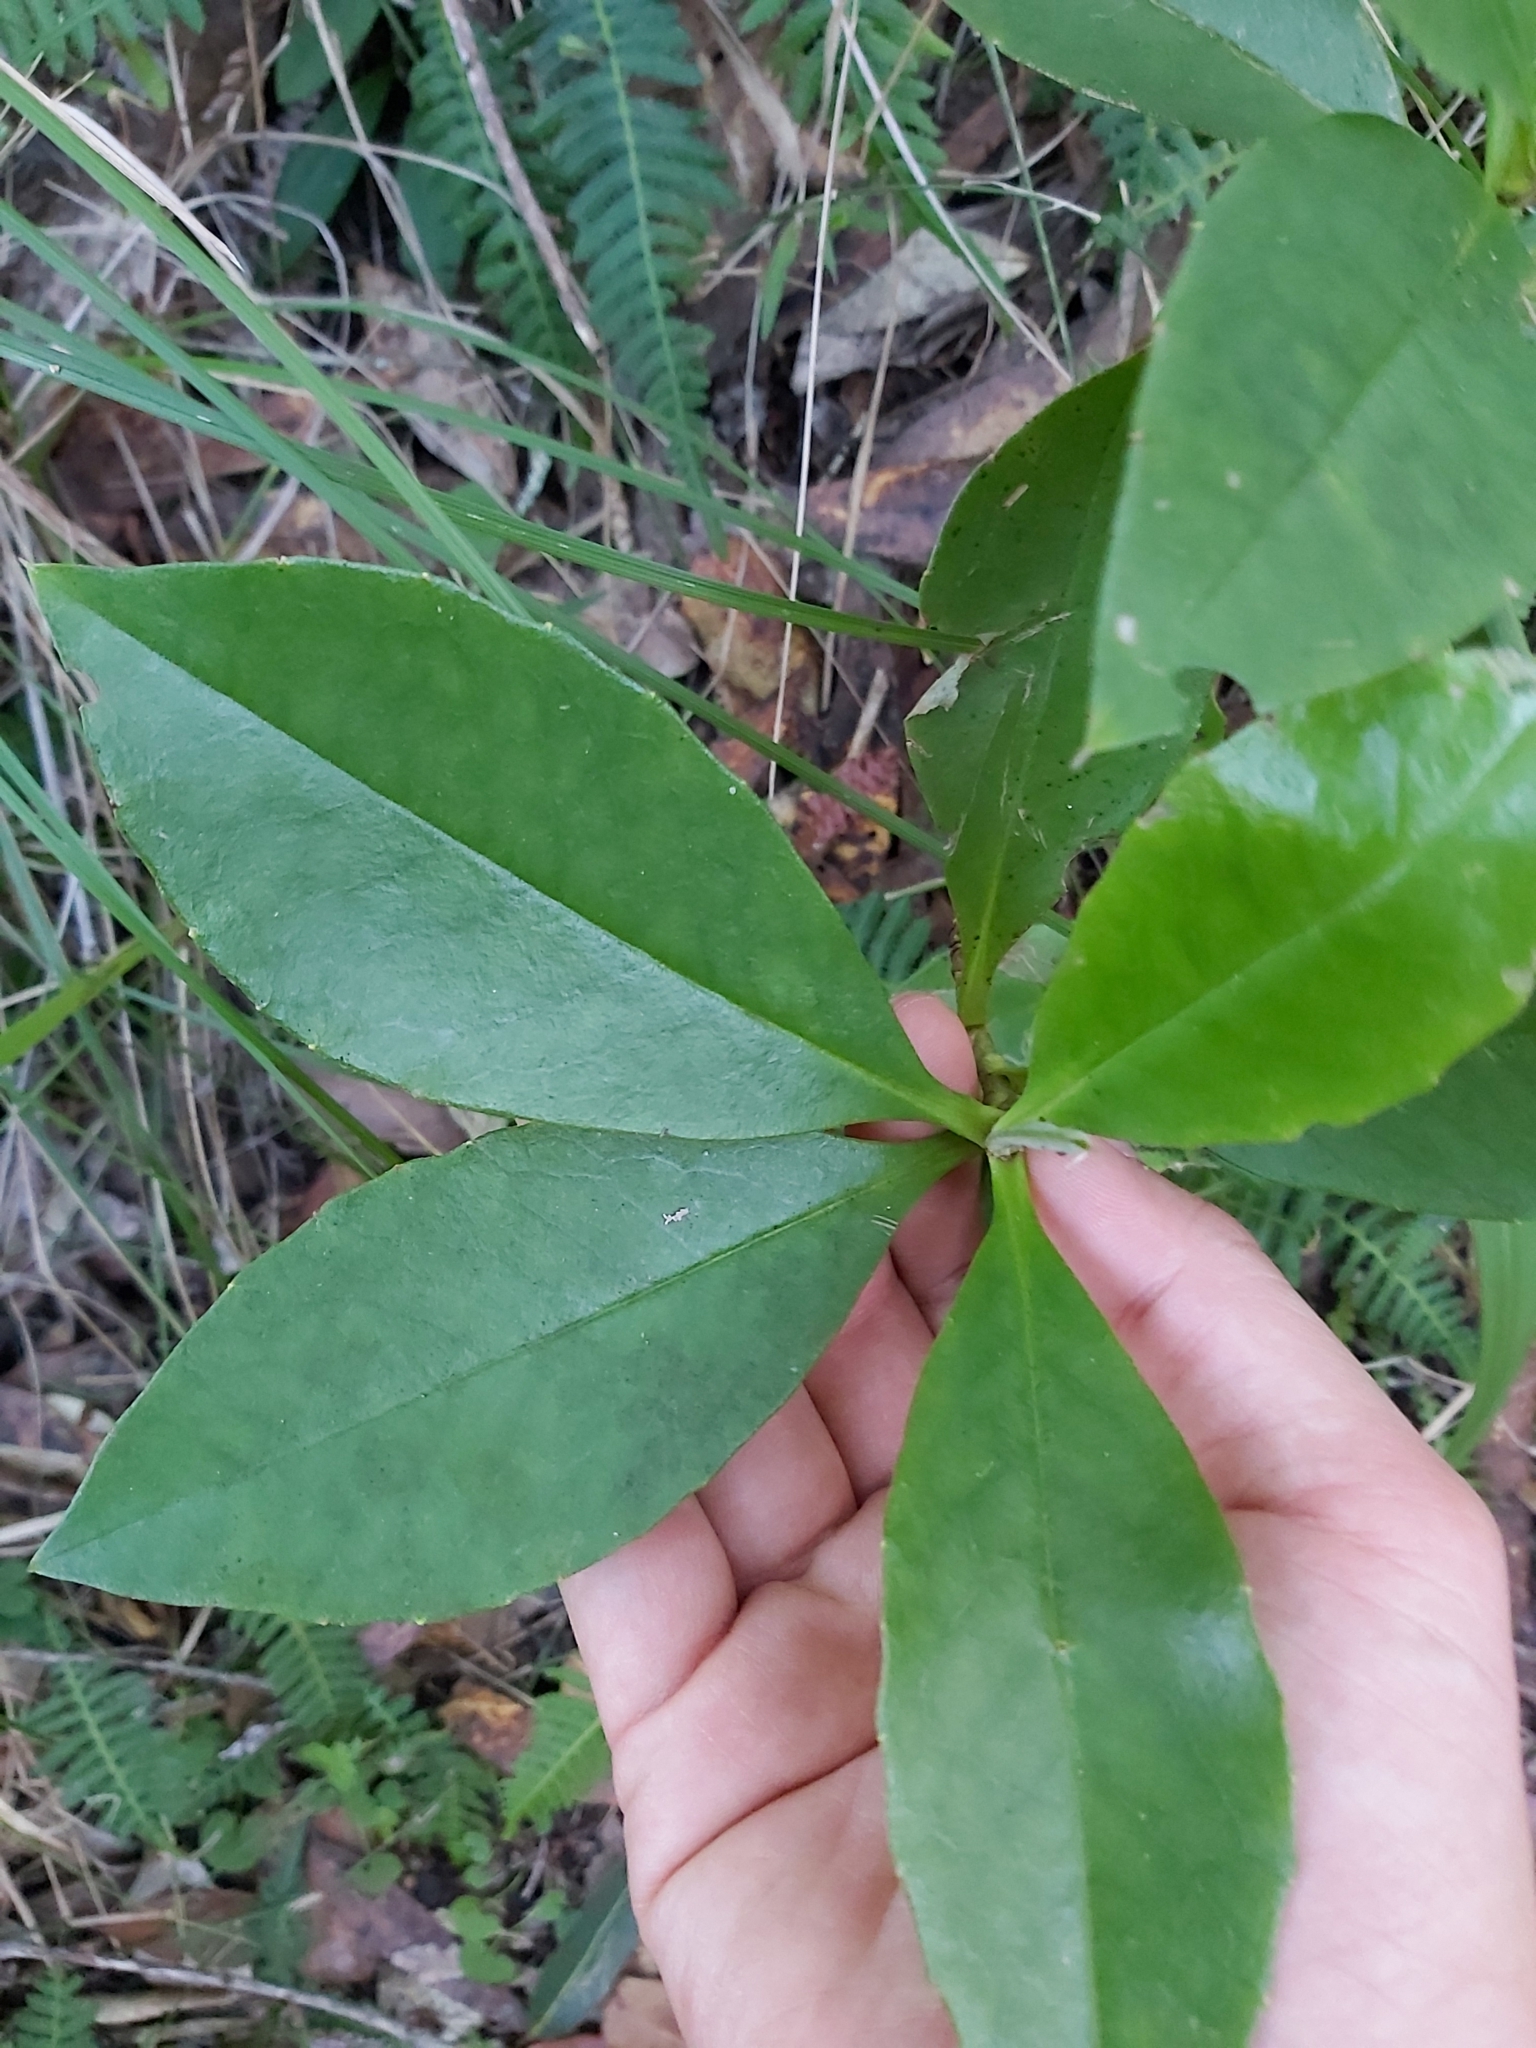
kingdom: Plantae
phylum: Tracheophyta
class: Magnoliopsida
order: Dilleniales
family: Dilleniaceae
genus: Hibbertia
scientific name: Hibbertia scandens
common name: Climbing guinea-flower
